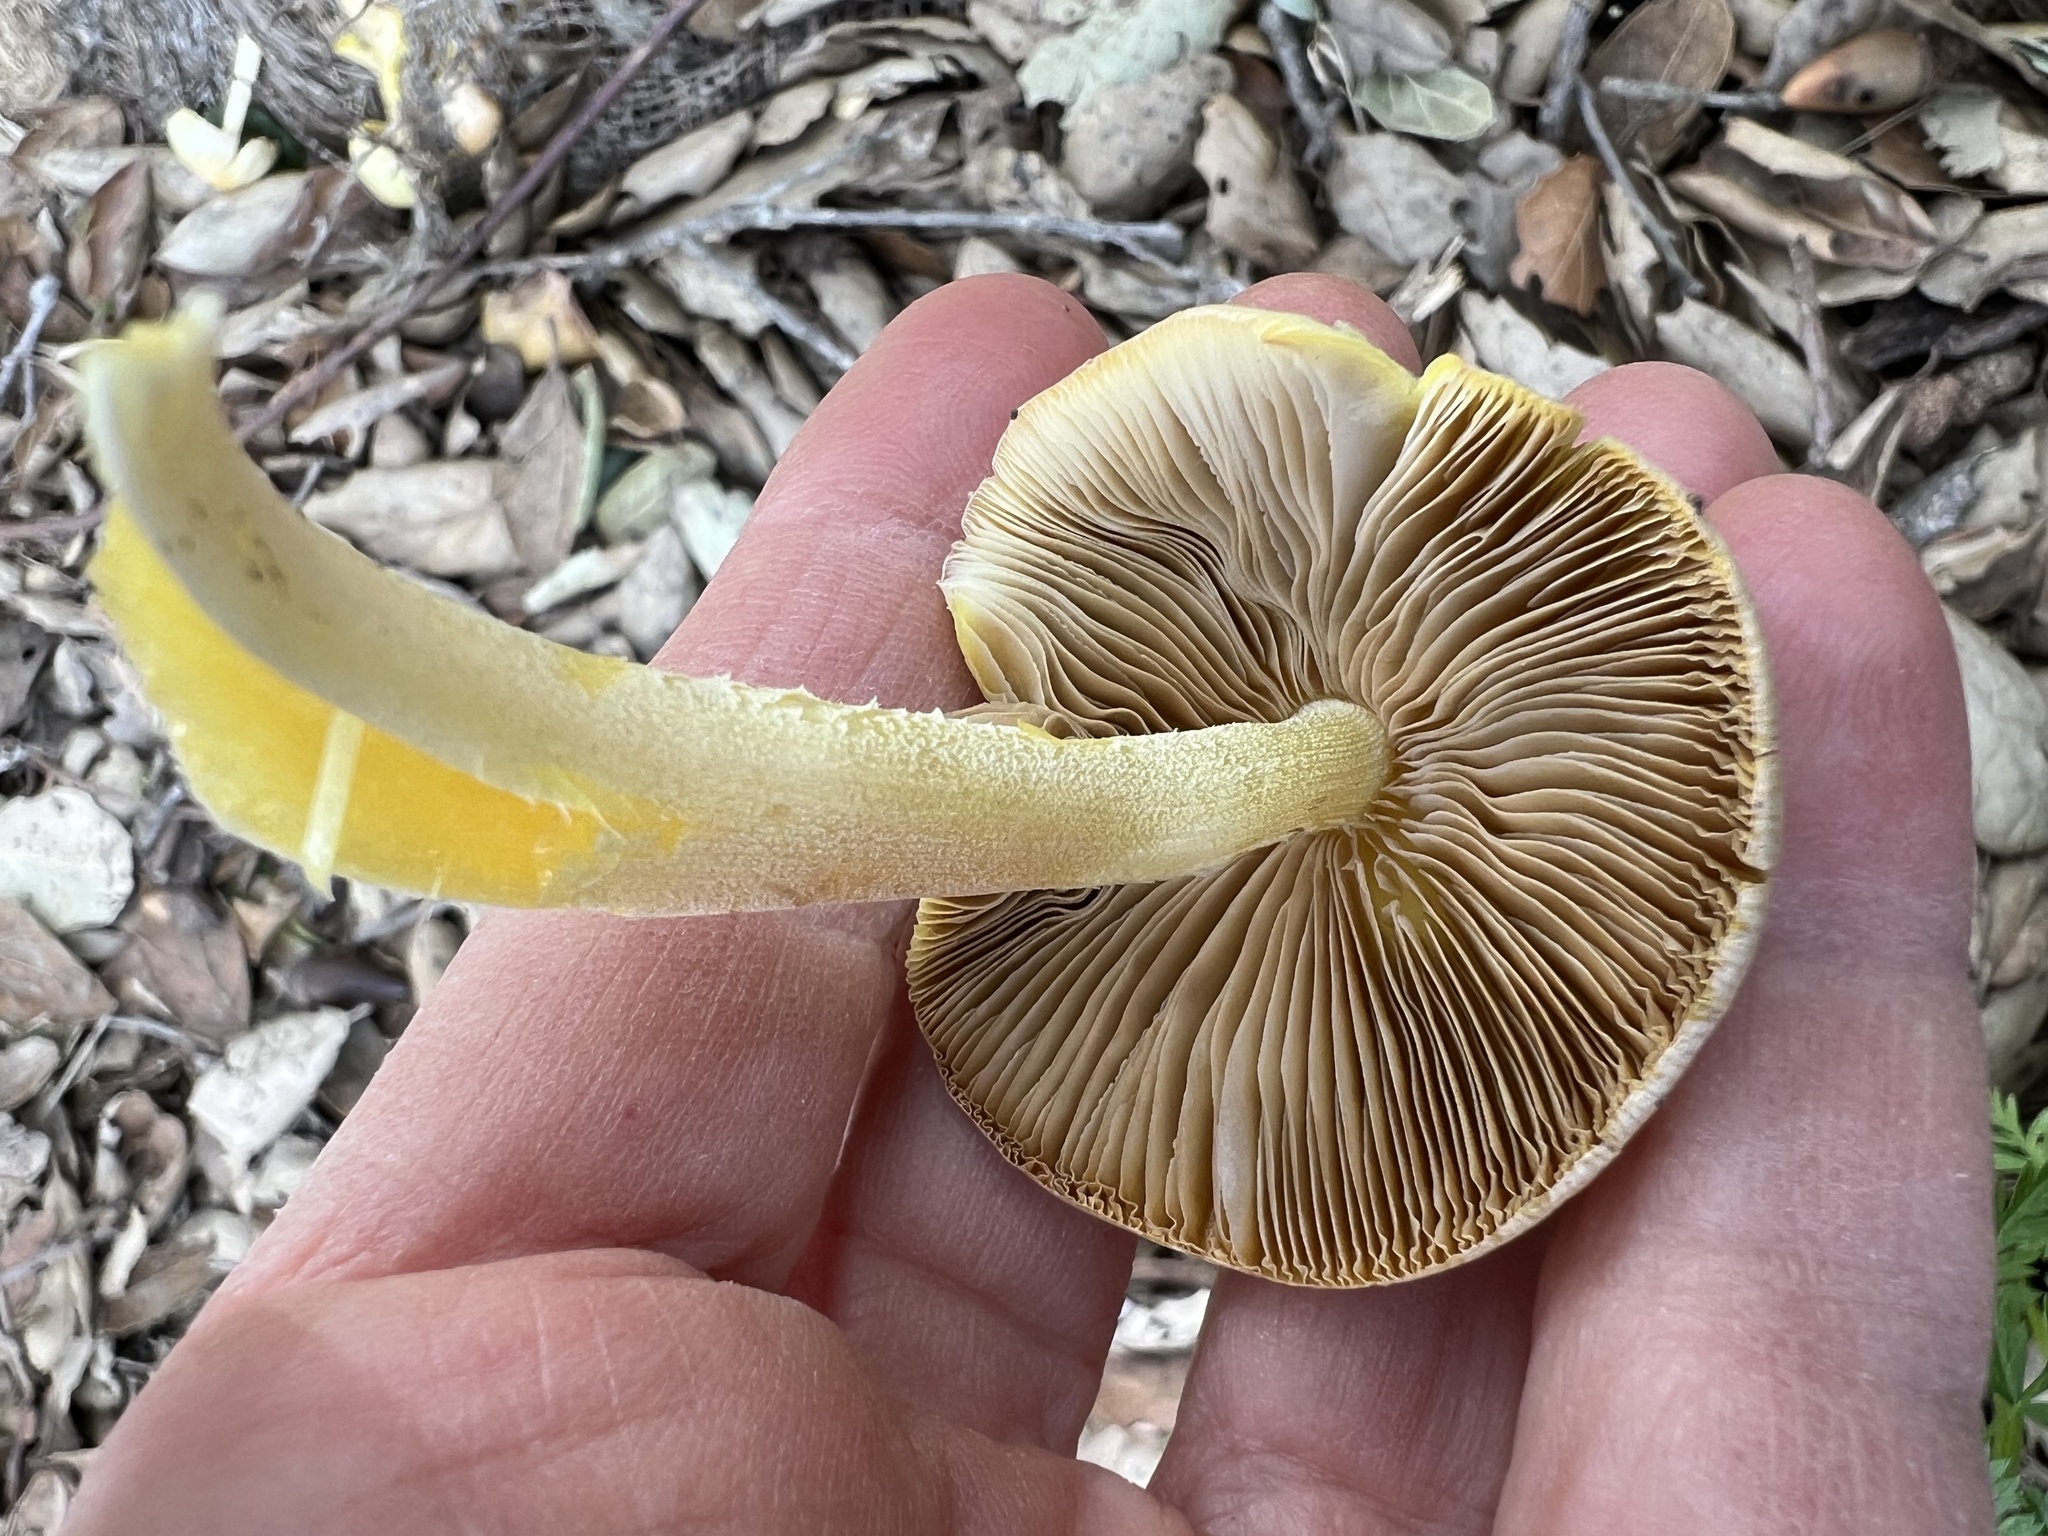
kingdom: Fungi
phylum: Basidiomycota
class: Agaricomycetes
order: Agaricales
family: Bolbitiaceae
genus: Bolbitius
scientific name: Bolbitius titubans
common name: Yellow fieldcap
